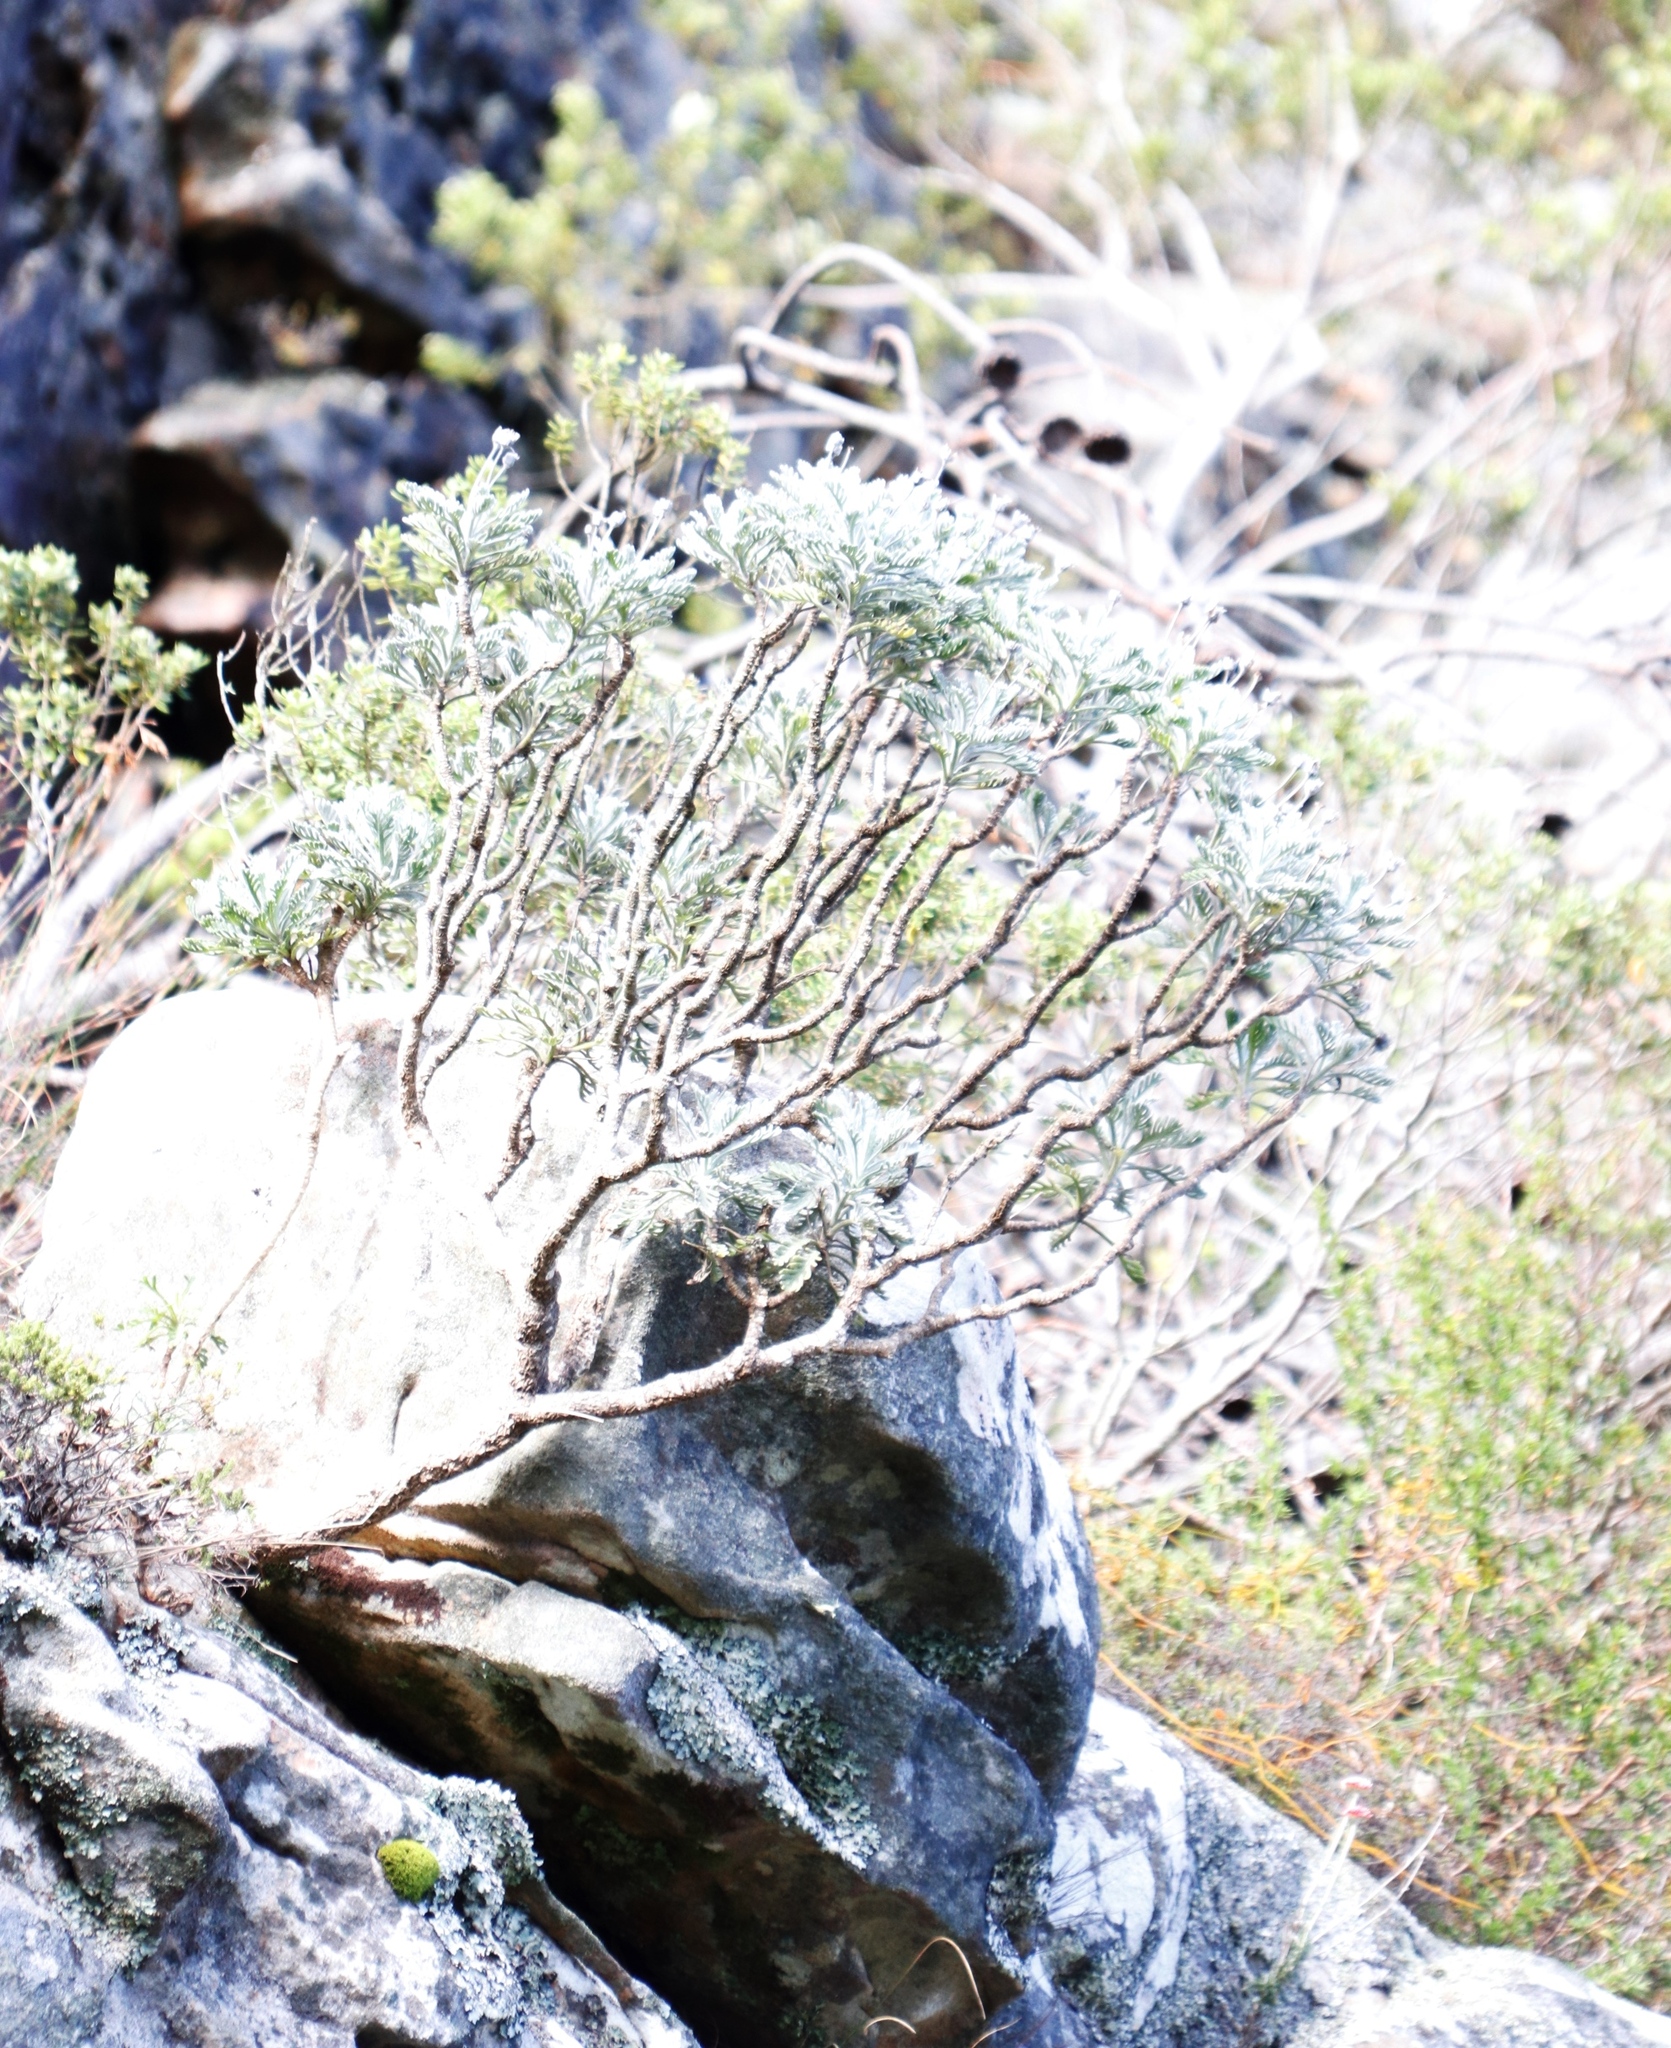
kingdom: Plantae
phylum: Tracheophyta
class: Magnoliopsida
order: Asterales
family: Asteraceae
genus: Euryops
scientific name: Euryops pectinatus
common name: Gray-leaf euryops
